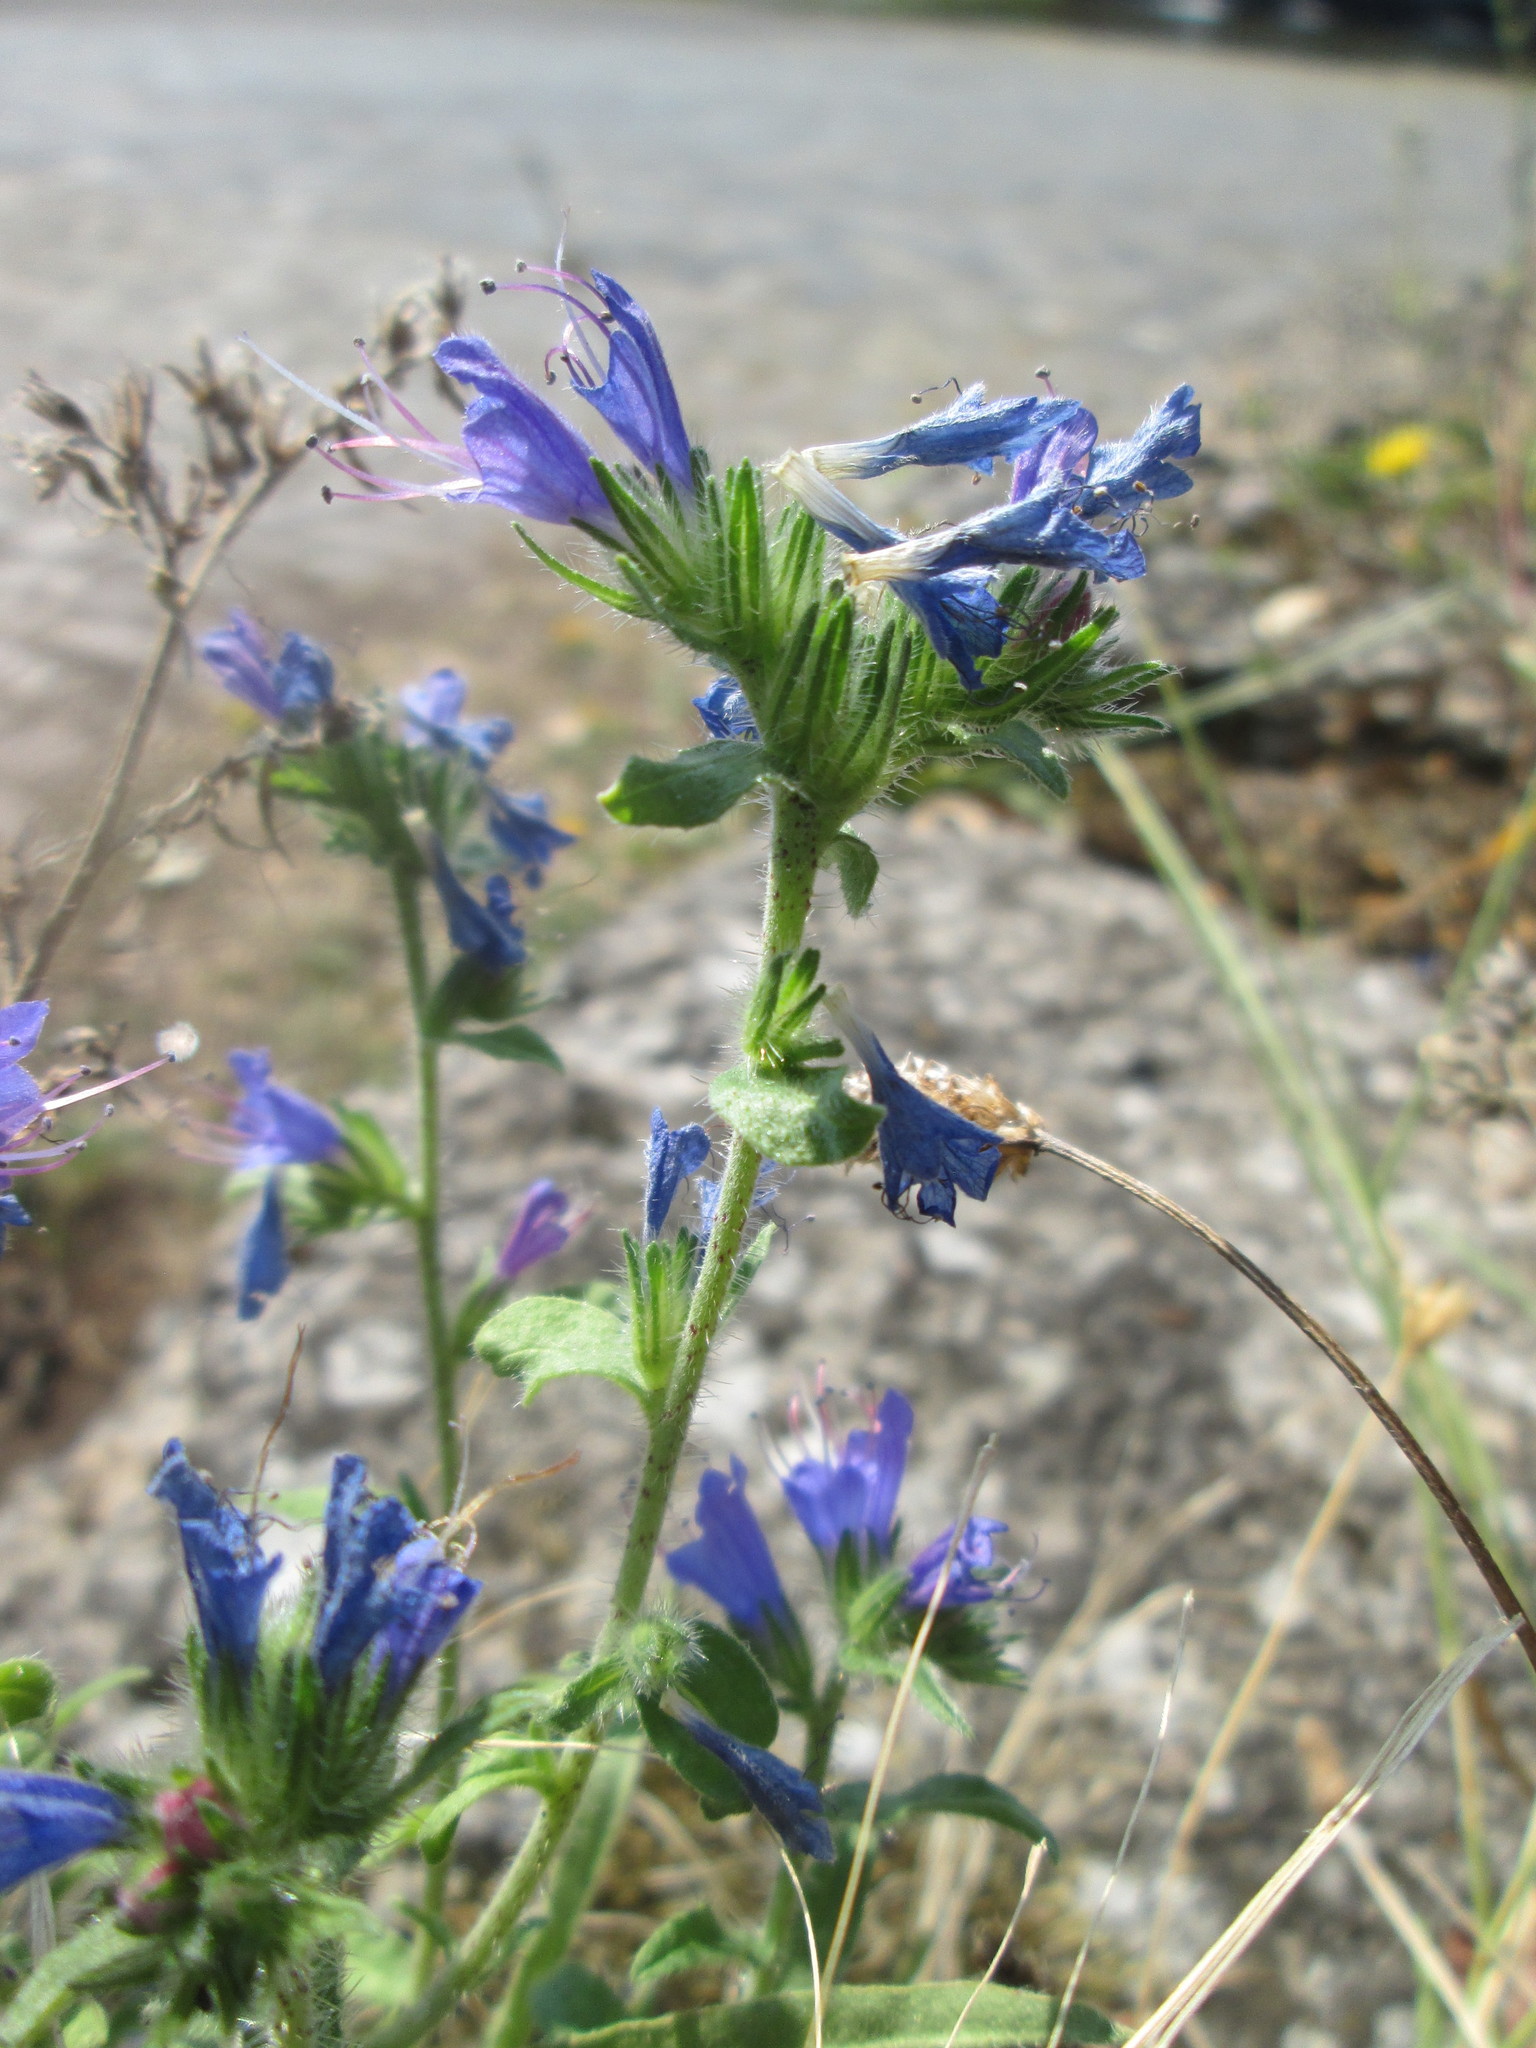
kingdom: Plantae
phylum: Tracheophyta
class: Magnoliopsida
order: Boraginales
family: Boraginaceae
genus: Echium
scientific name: Echium vulgare
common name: Common viper's bugloss
